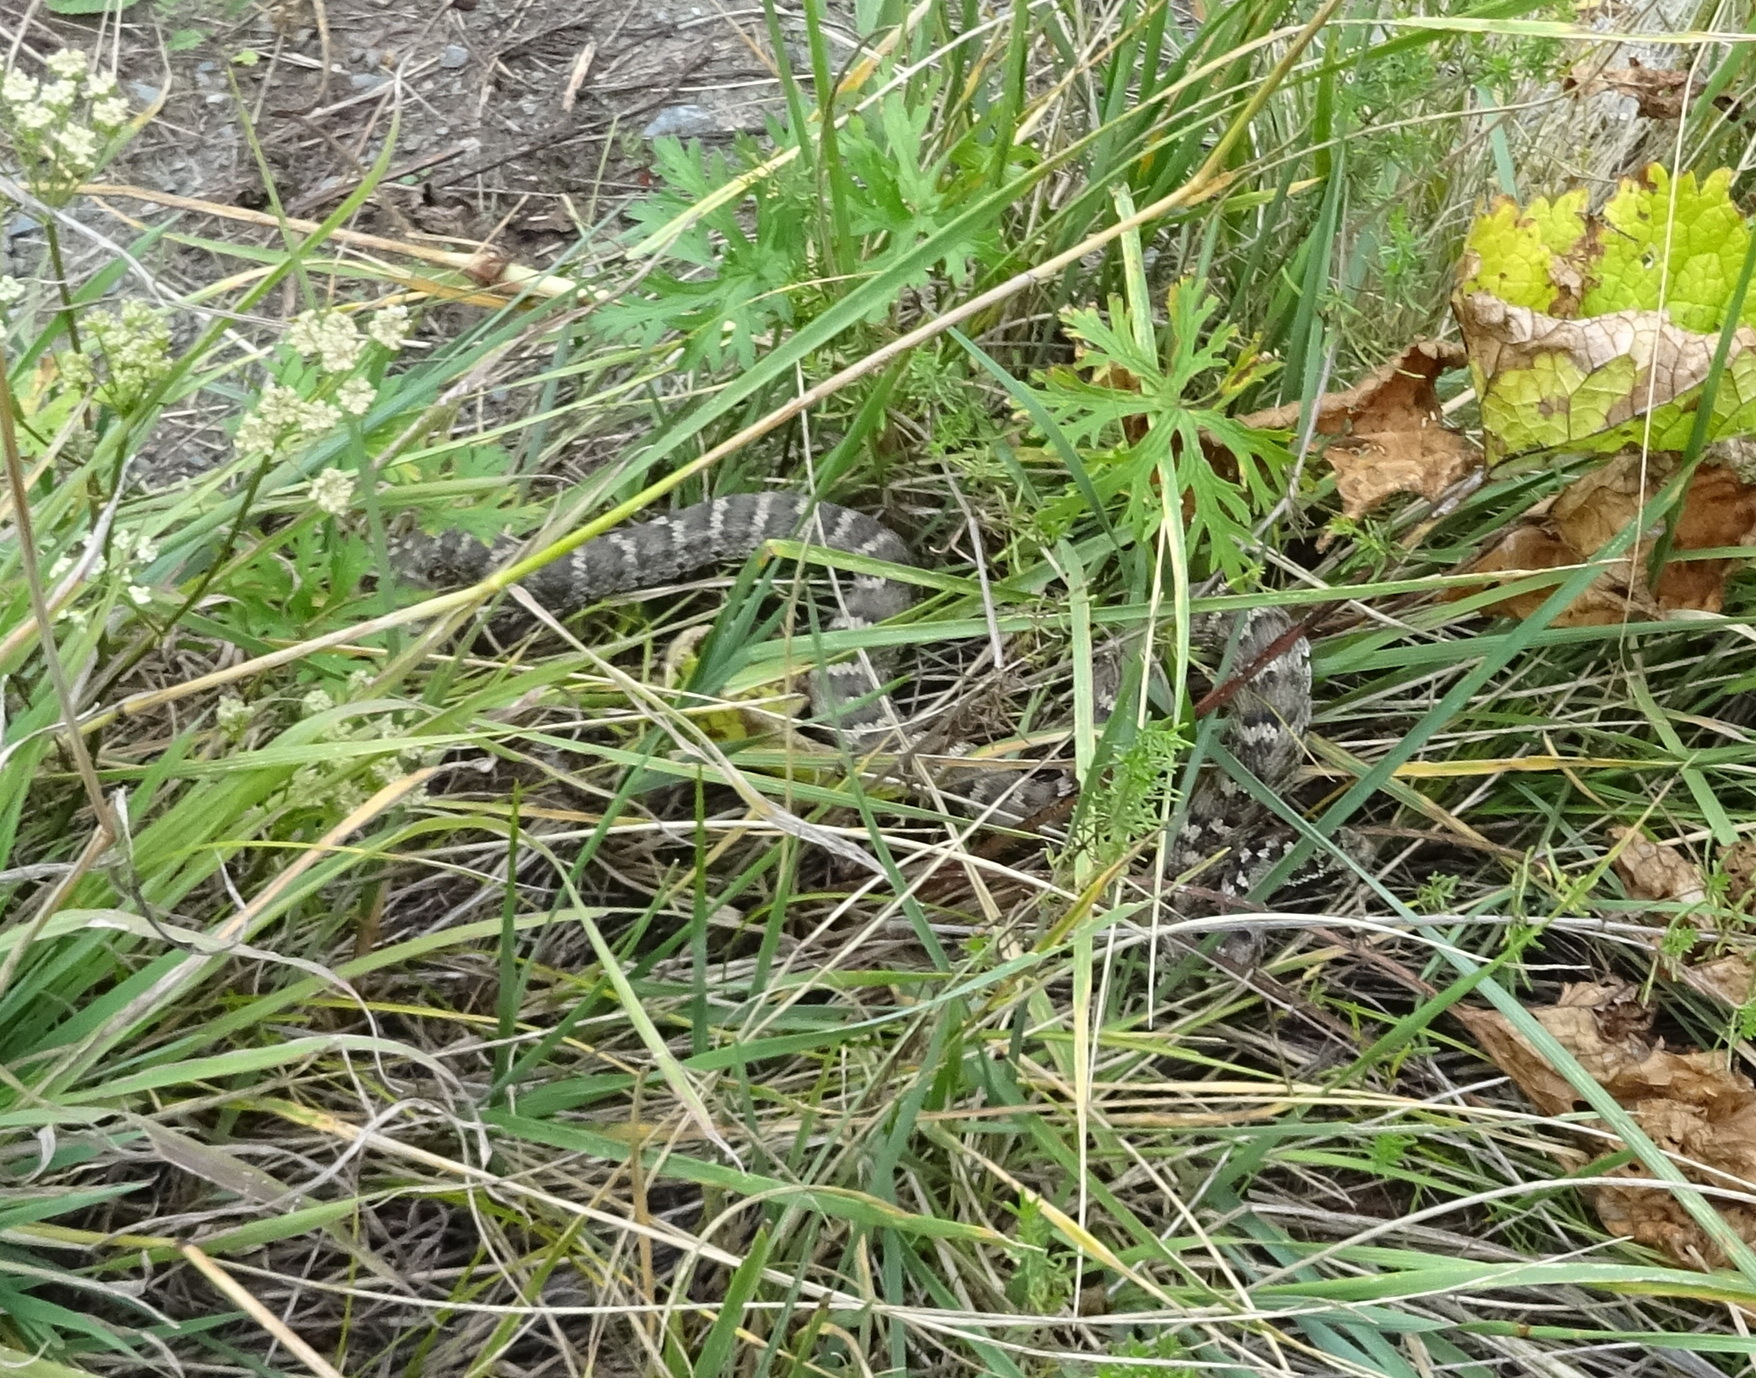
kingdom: Animalia
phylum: Chordata
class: Squamata
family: Viperidae
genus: Gloydius
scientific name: Gloydius halys
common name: Halys pit viper
